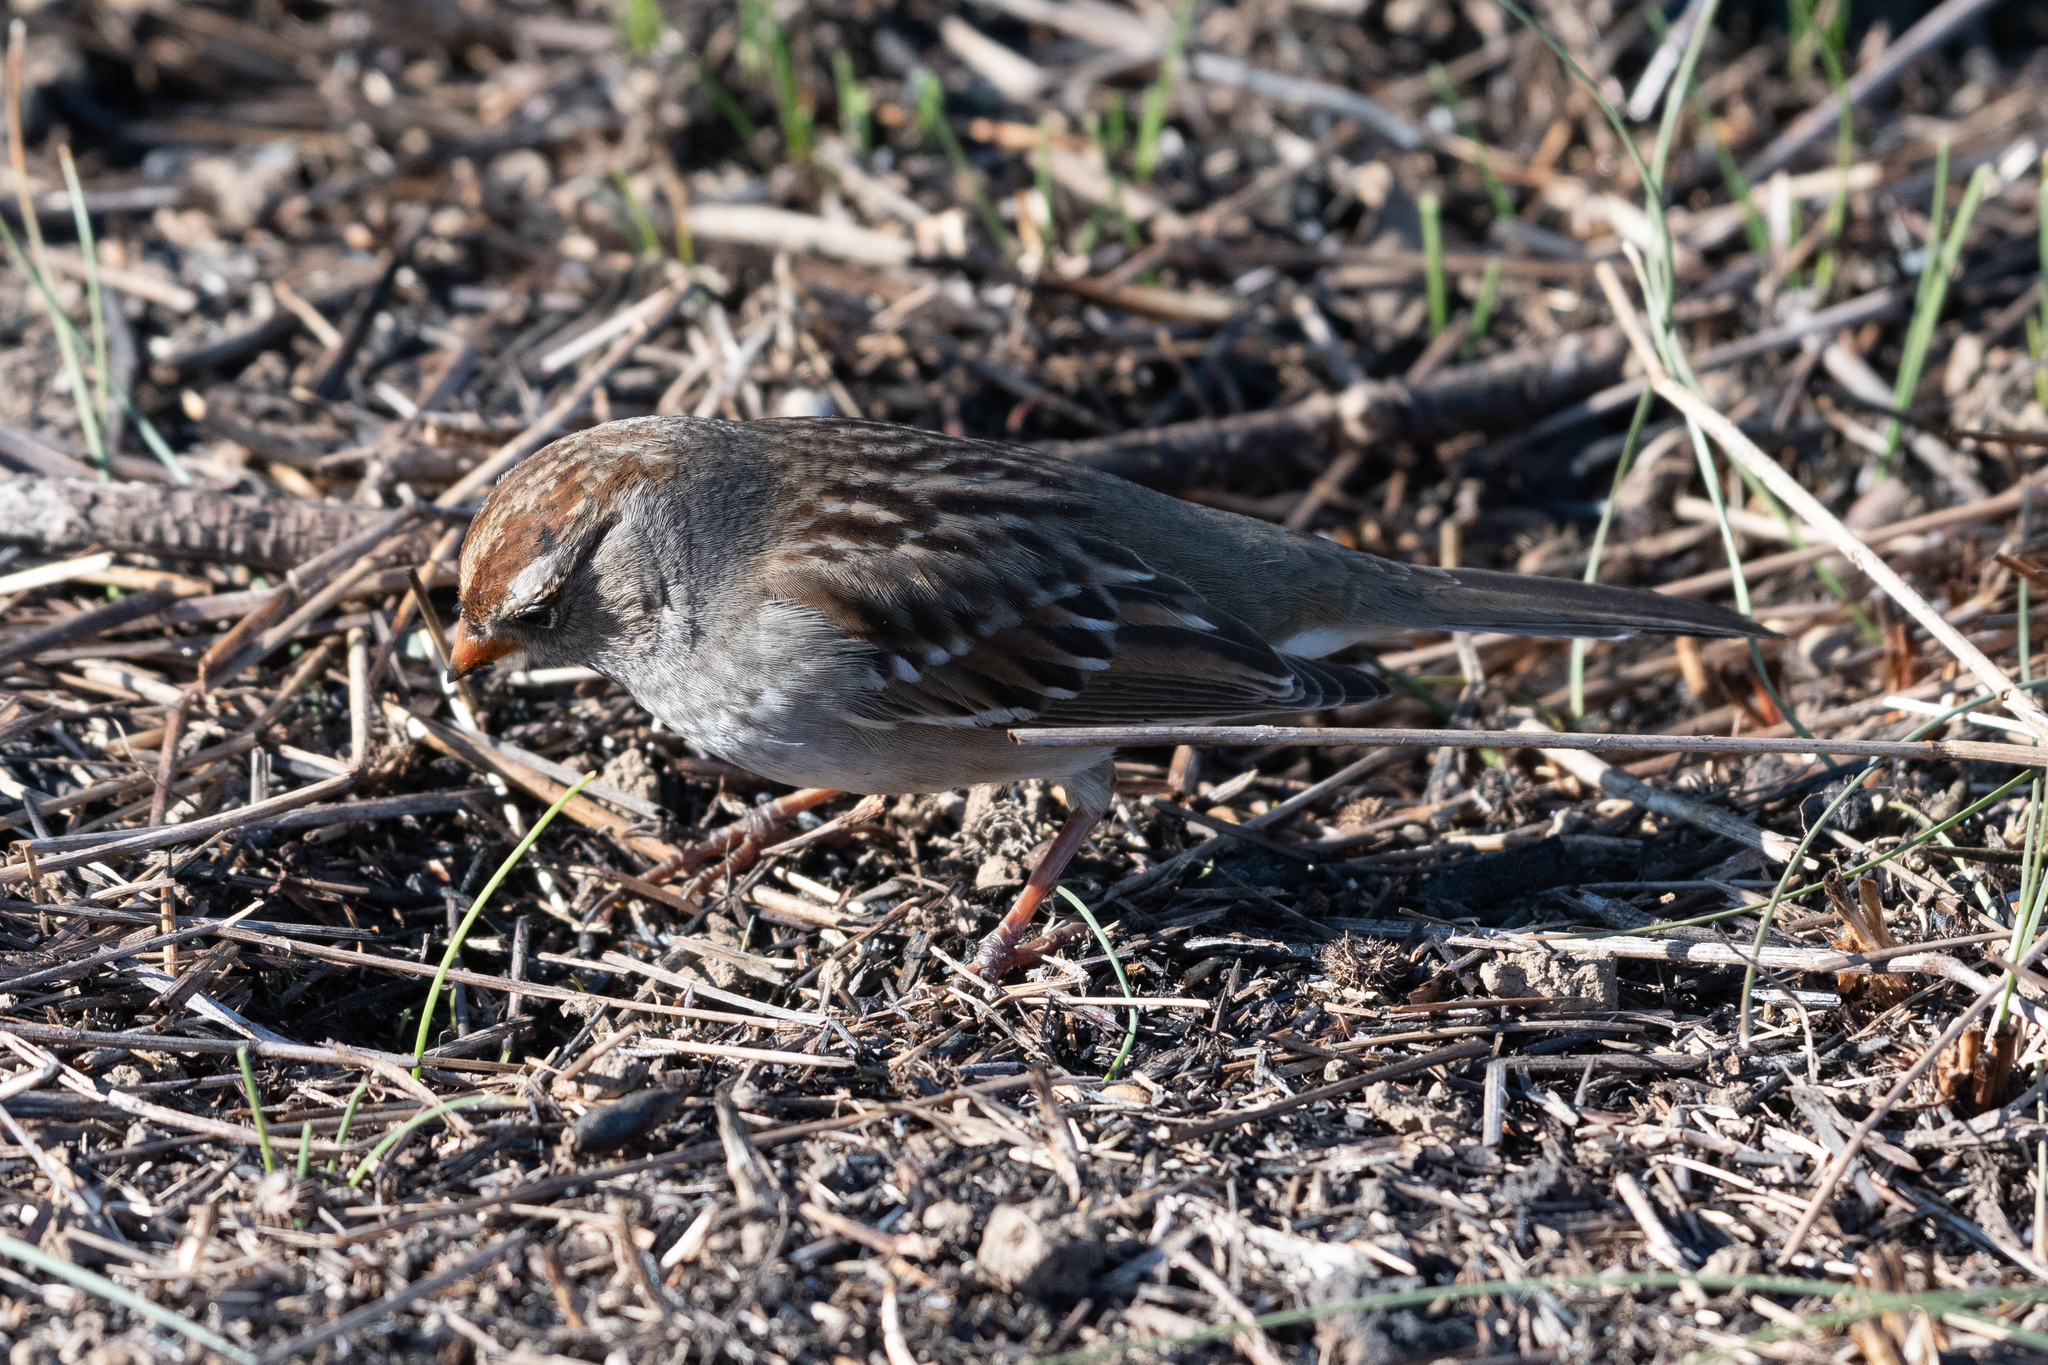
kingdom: Animalia
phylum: Chordata
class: Aves
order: Passeriformes
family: Passerellidae
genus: Zonotrichia
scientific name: Zonotrichia leucophrys
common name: White-crowned sparrow
